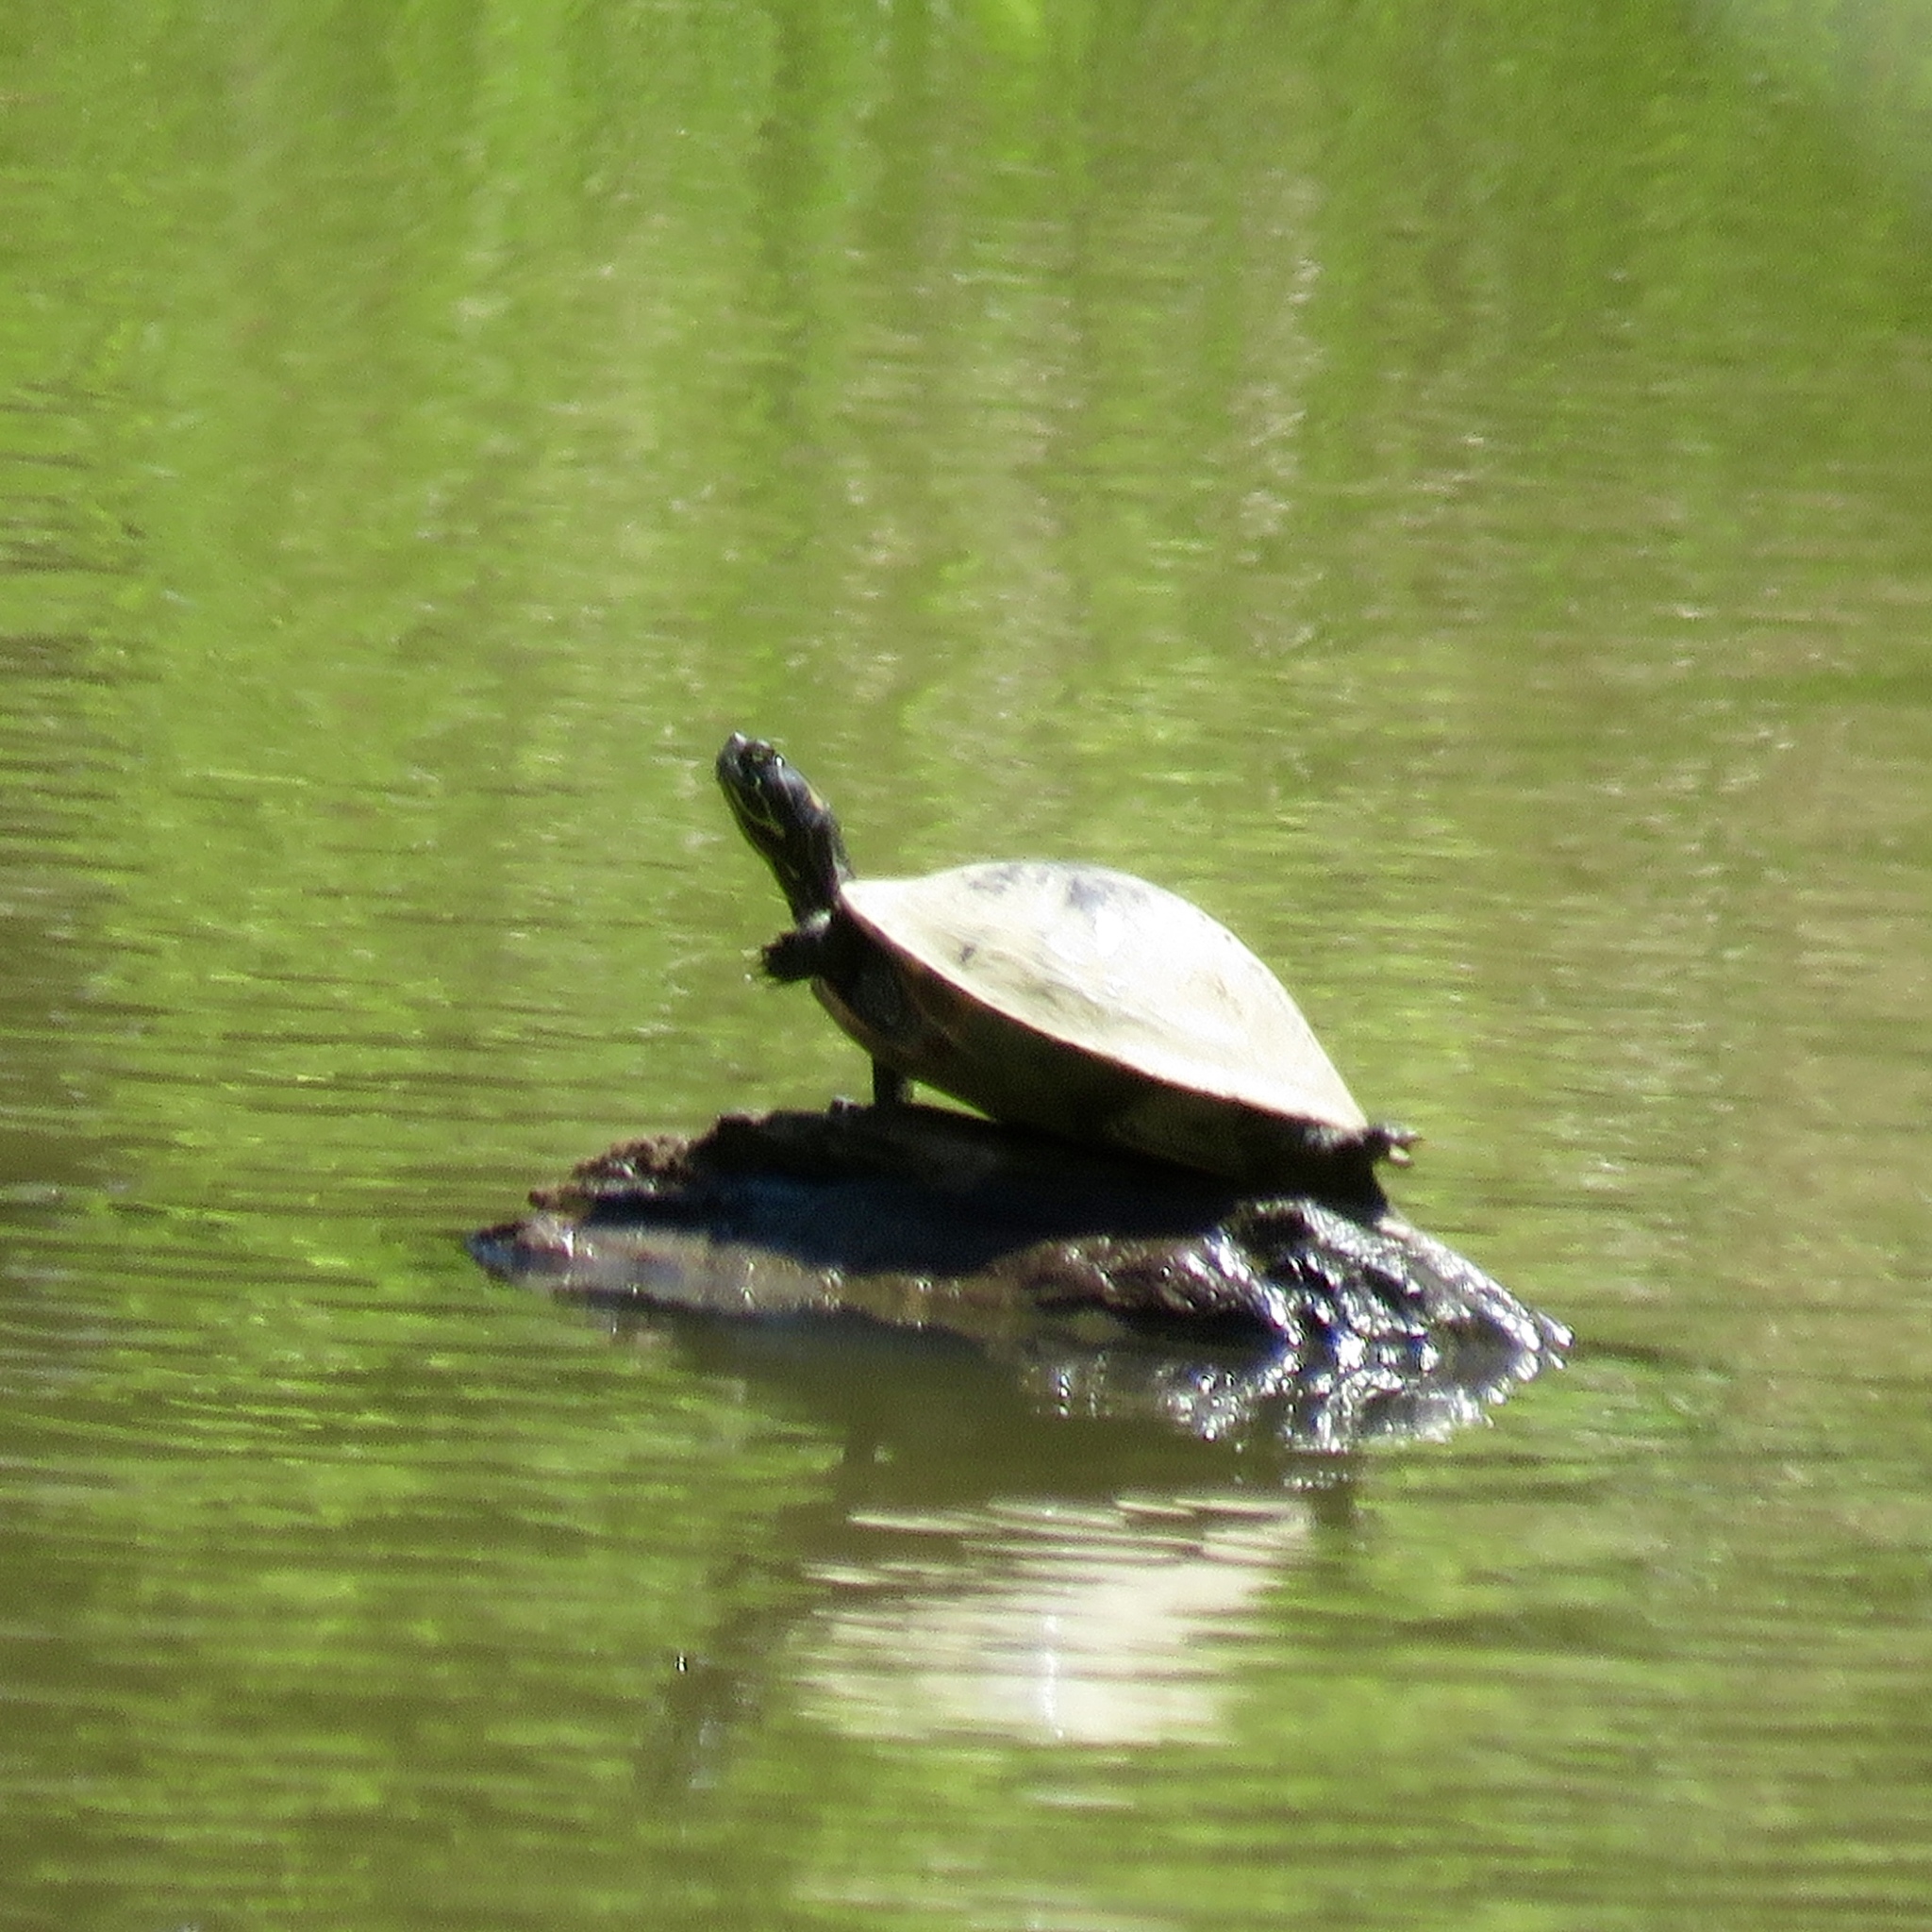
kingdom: Animalia
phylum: Chordata
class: Testudines
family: Emydidae
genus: Pseudemys
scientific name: Pseudemys concinna
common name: Eastern river cooter
